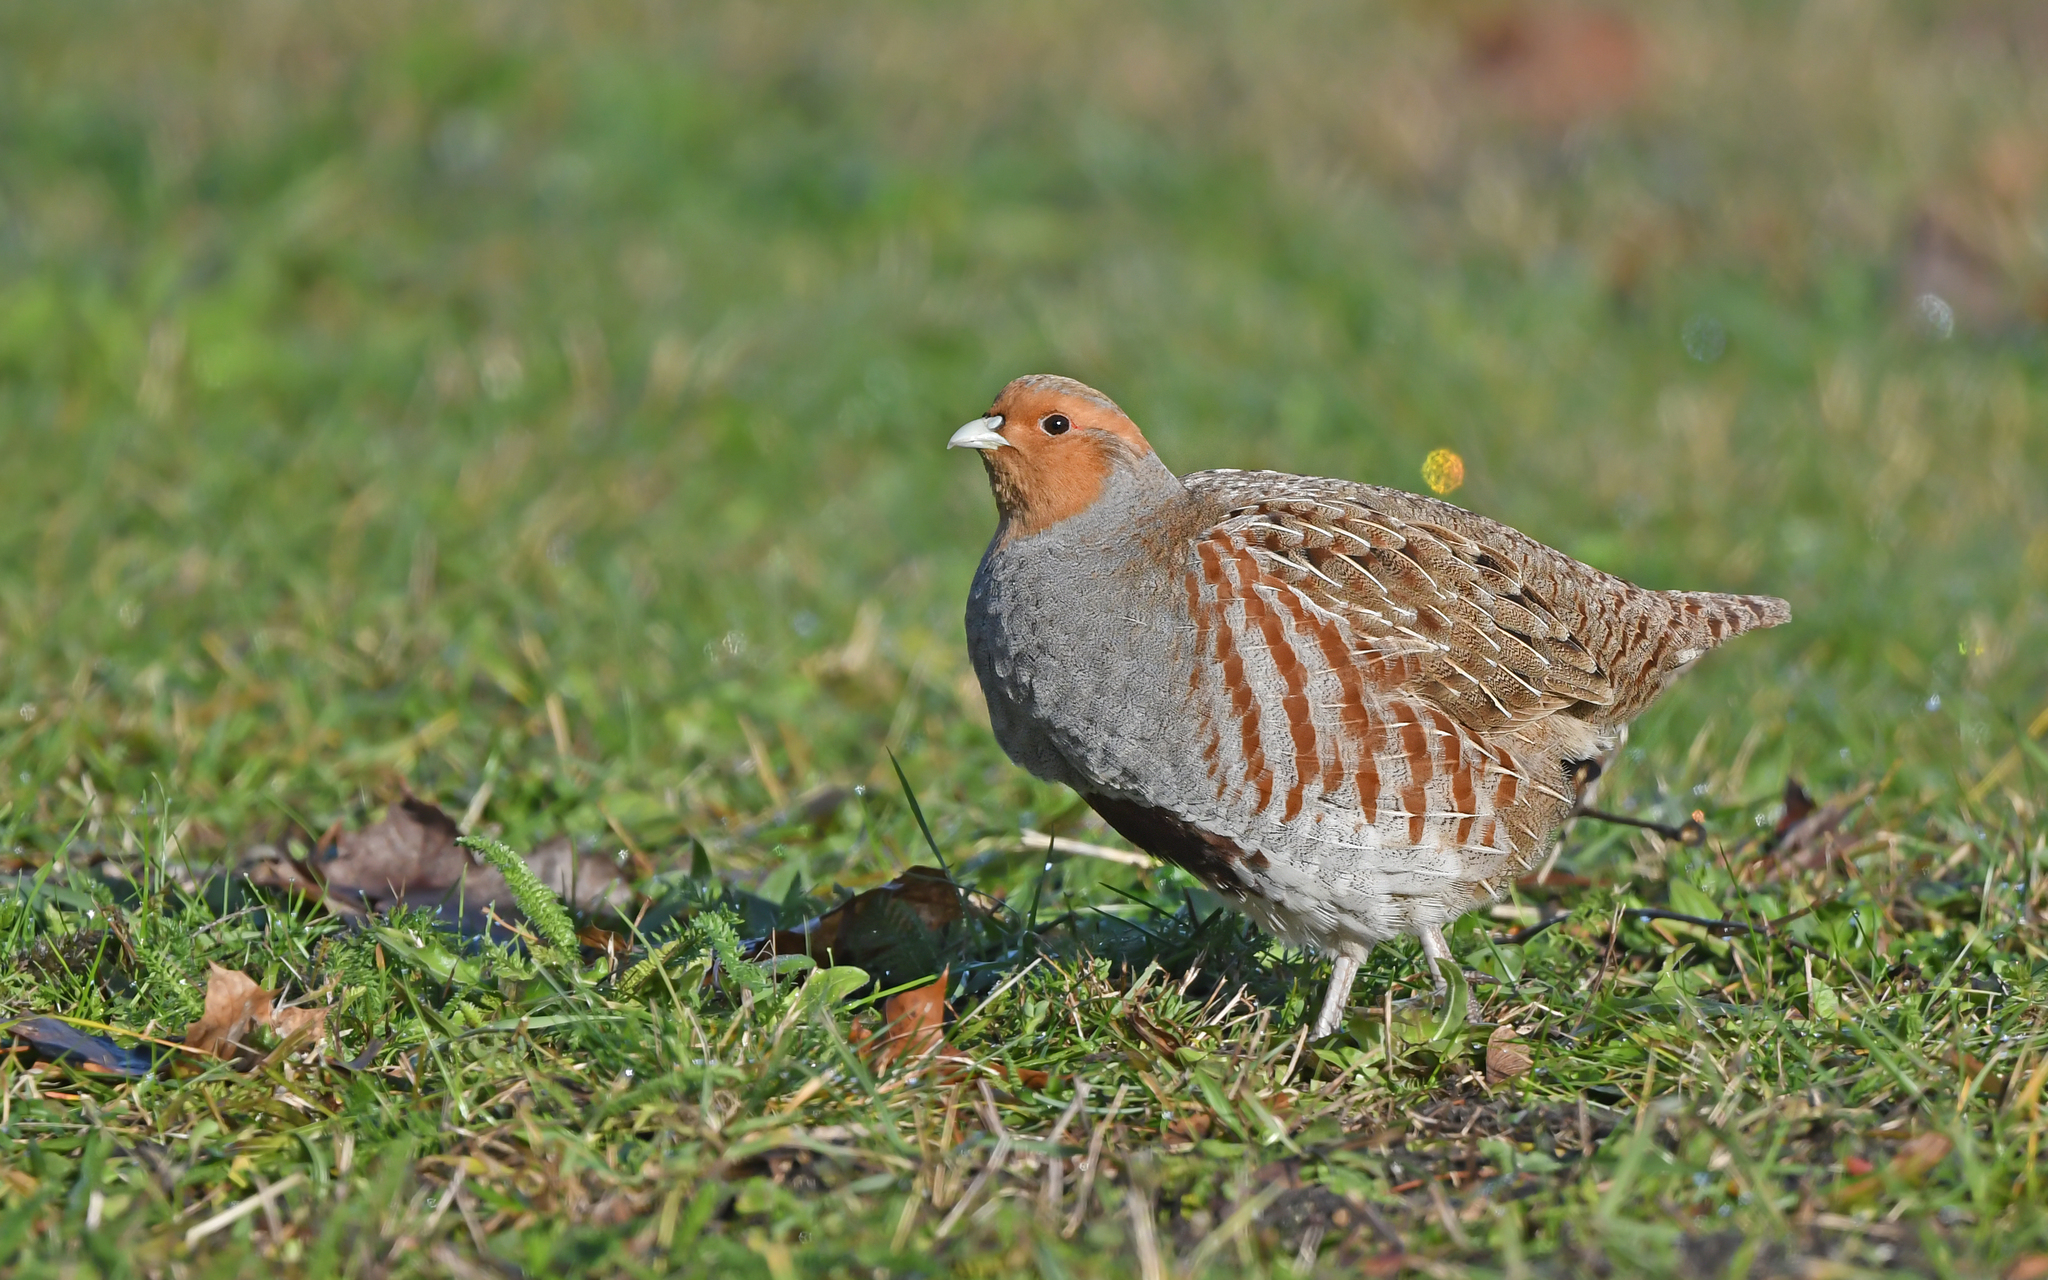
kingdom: Animalia
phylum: Chordata
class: Aves
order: Galliformes
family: Phasianidae
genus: Perdix
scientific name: Perdix perdix
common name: Grey partridge
